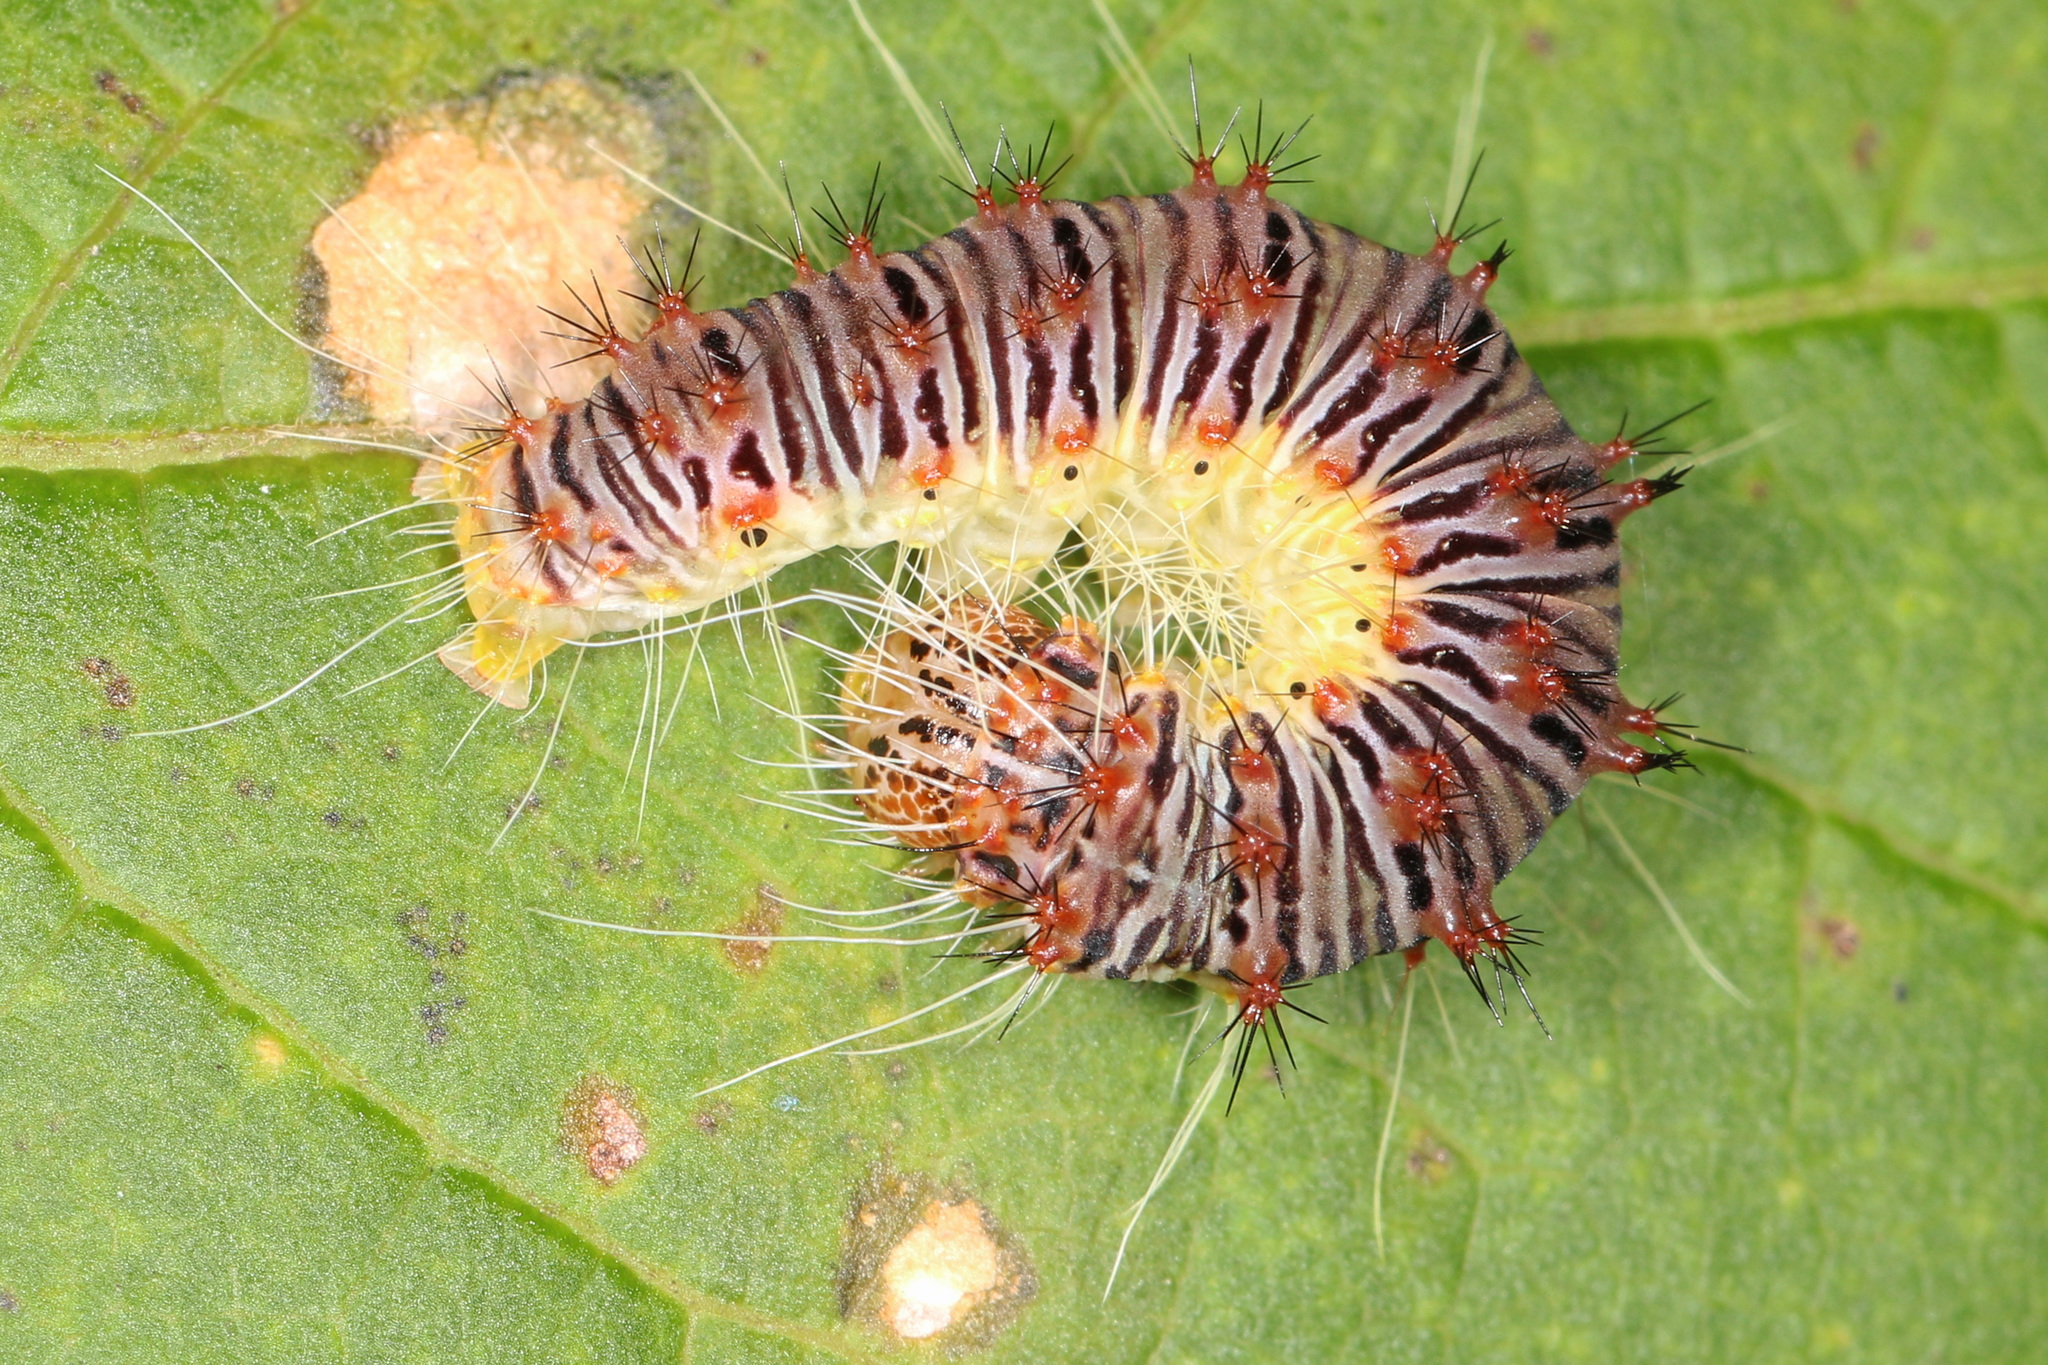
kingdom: Animalia
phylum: Arthropoda
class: Insecta
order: Lepidoptera
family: Noctuidae
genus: Acronicta
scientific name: Acronicta retardata
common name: Maple dagger
